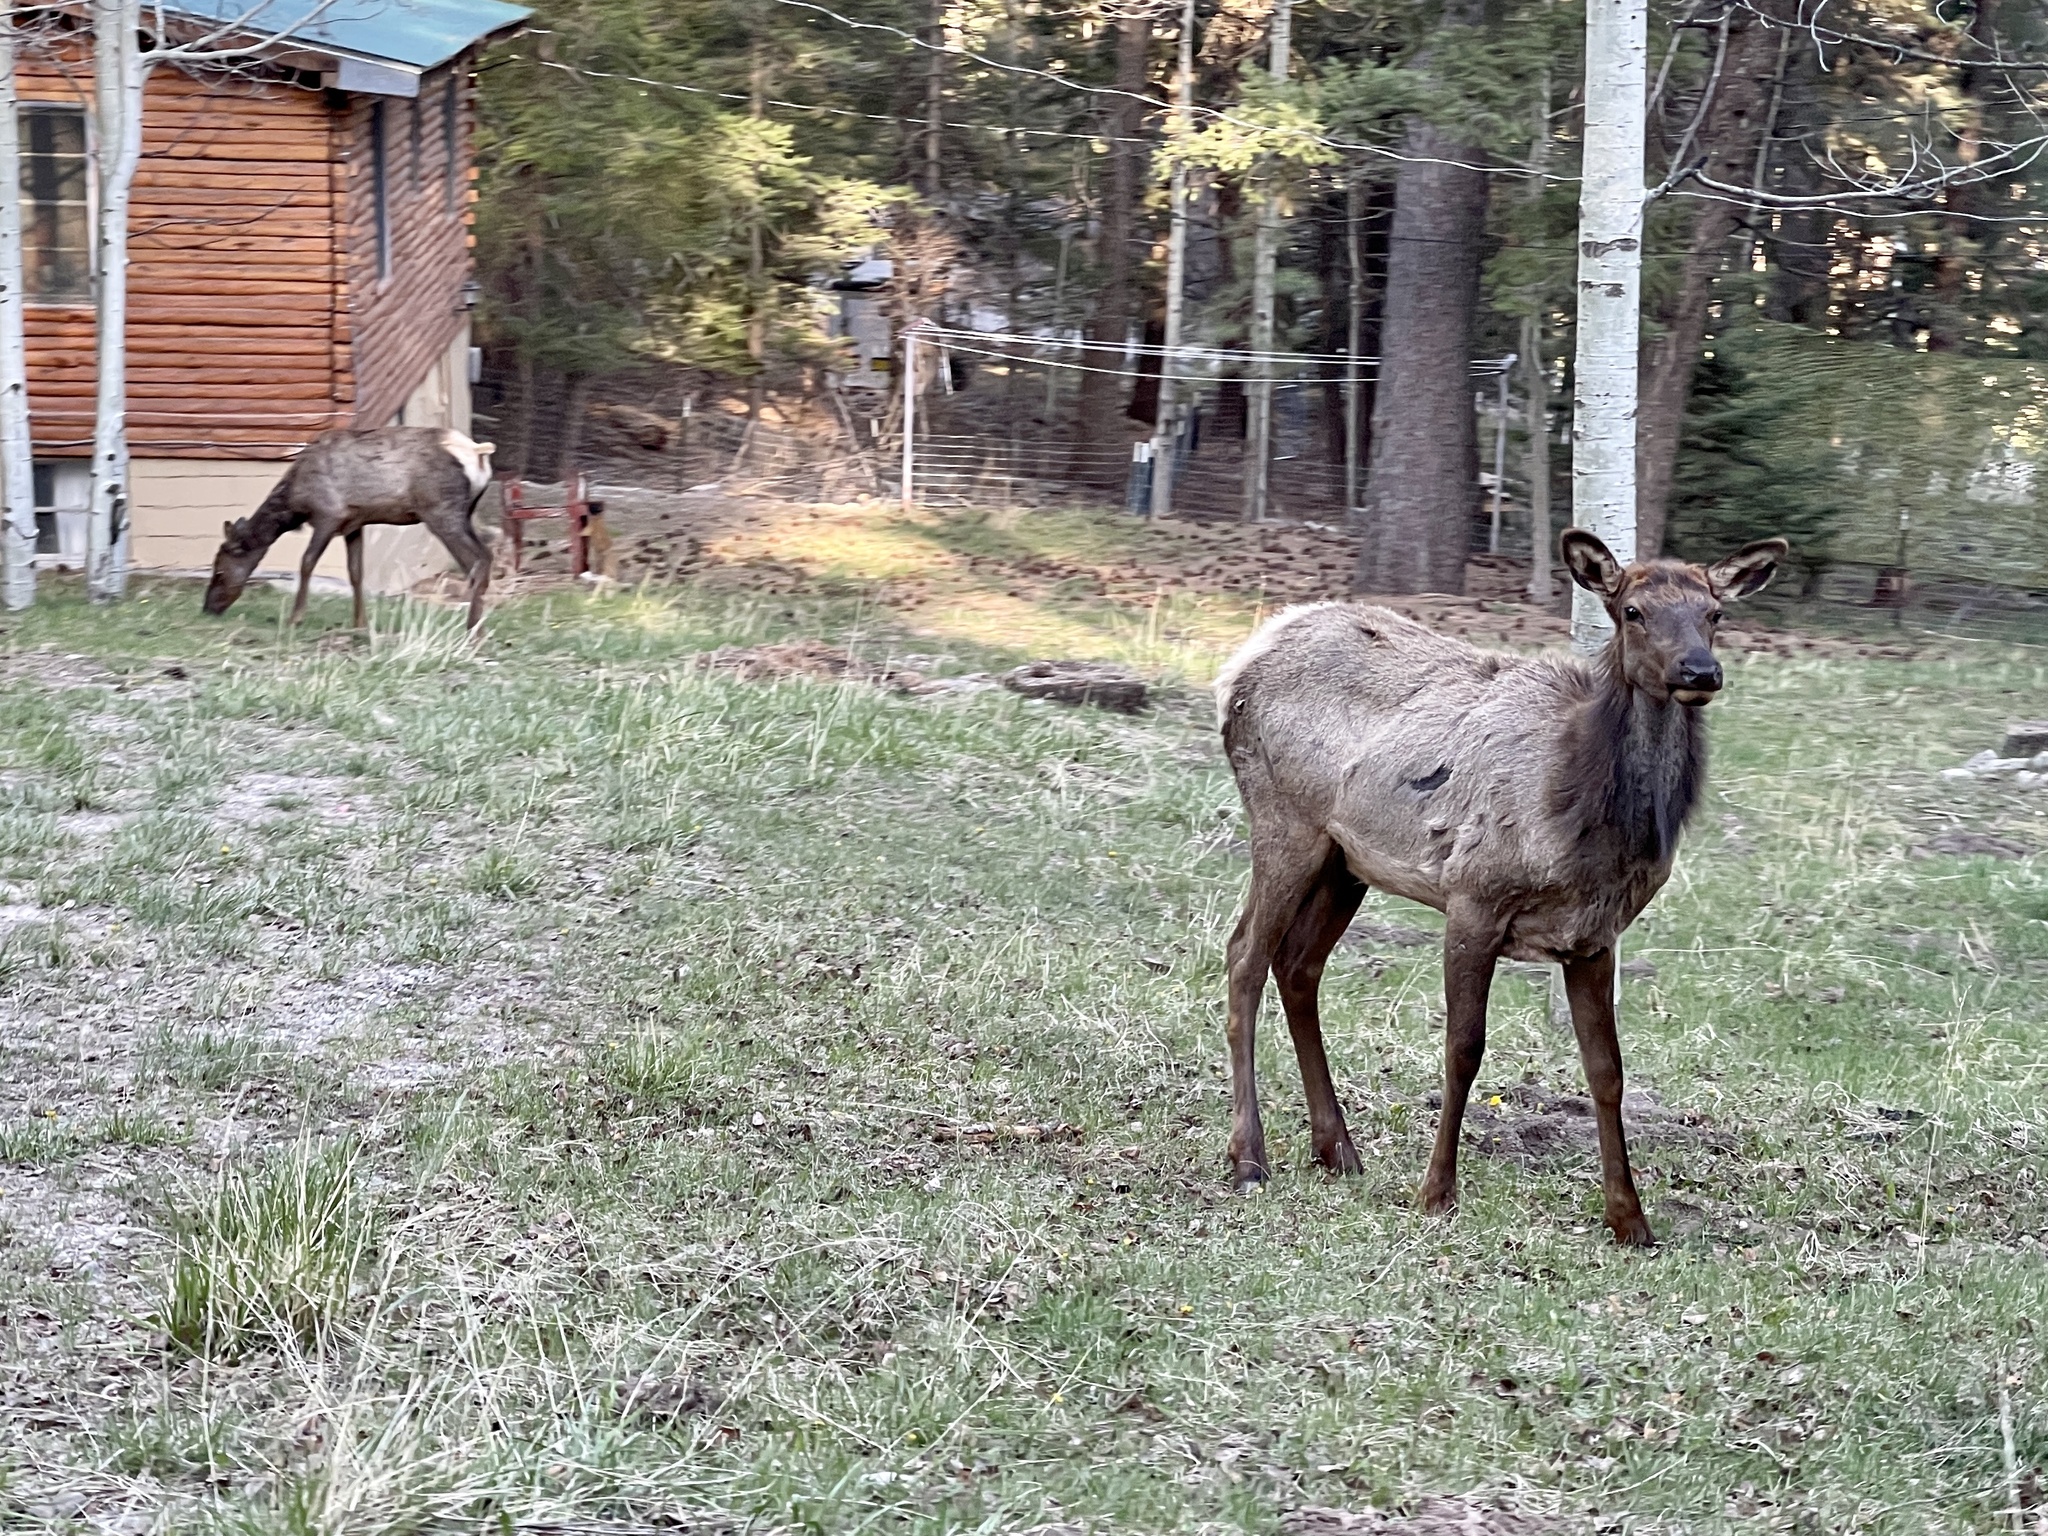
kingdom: Animalia
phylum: Chordata
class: Mammalia
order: Artiodactyla
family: Cervidae
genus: Cervus
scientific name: Cervus elaphus
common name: Red deer
